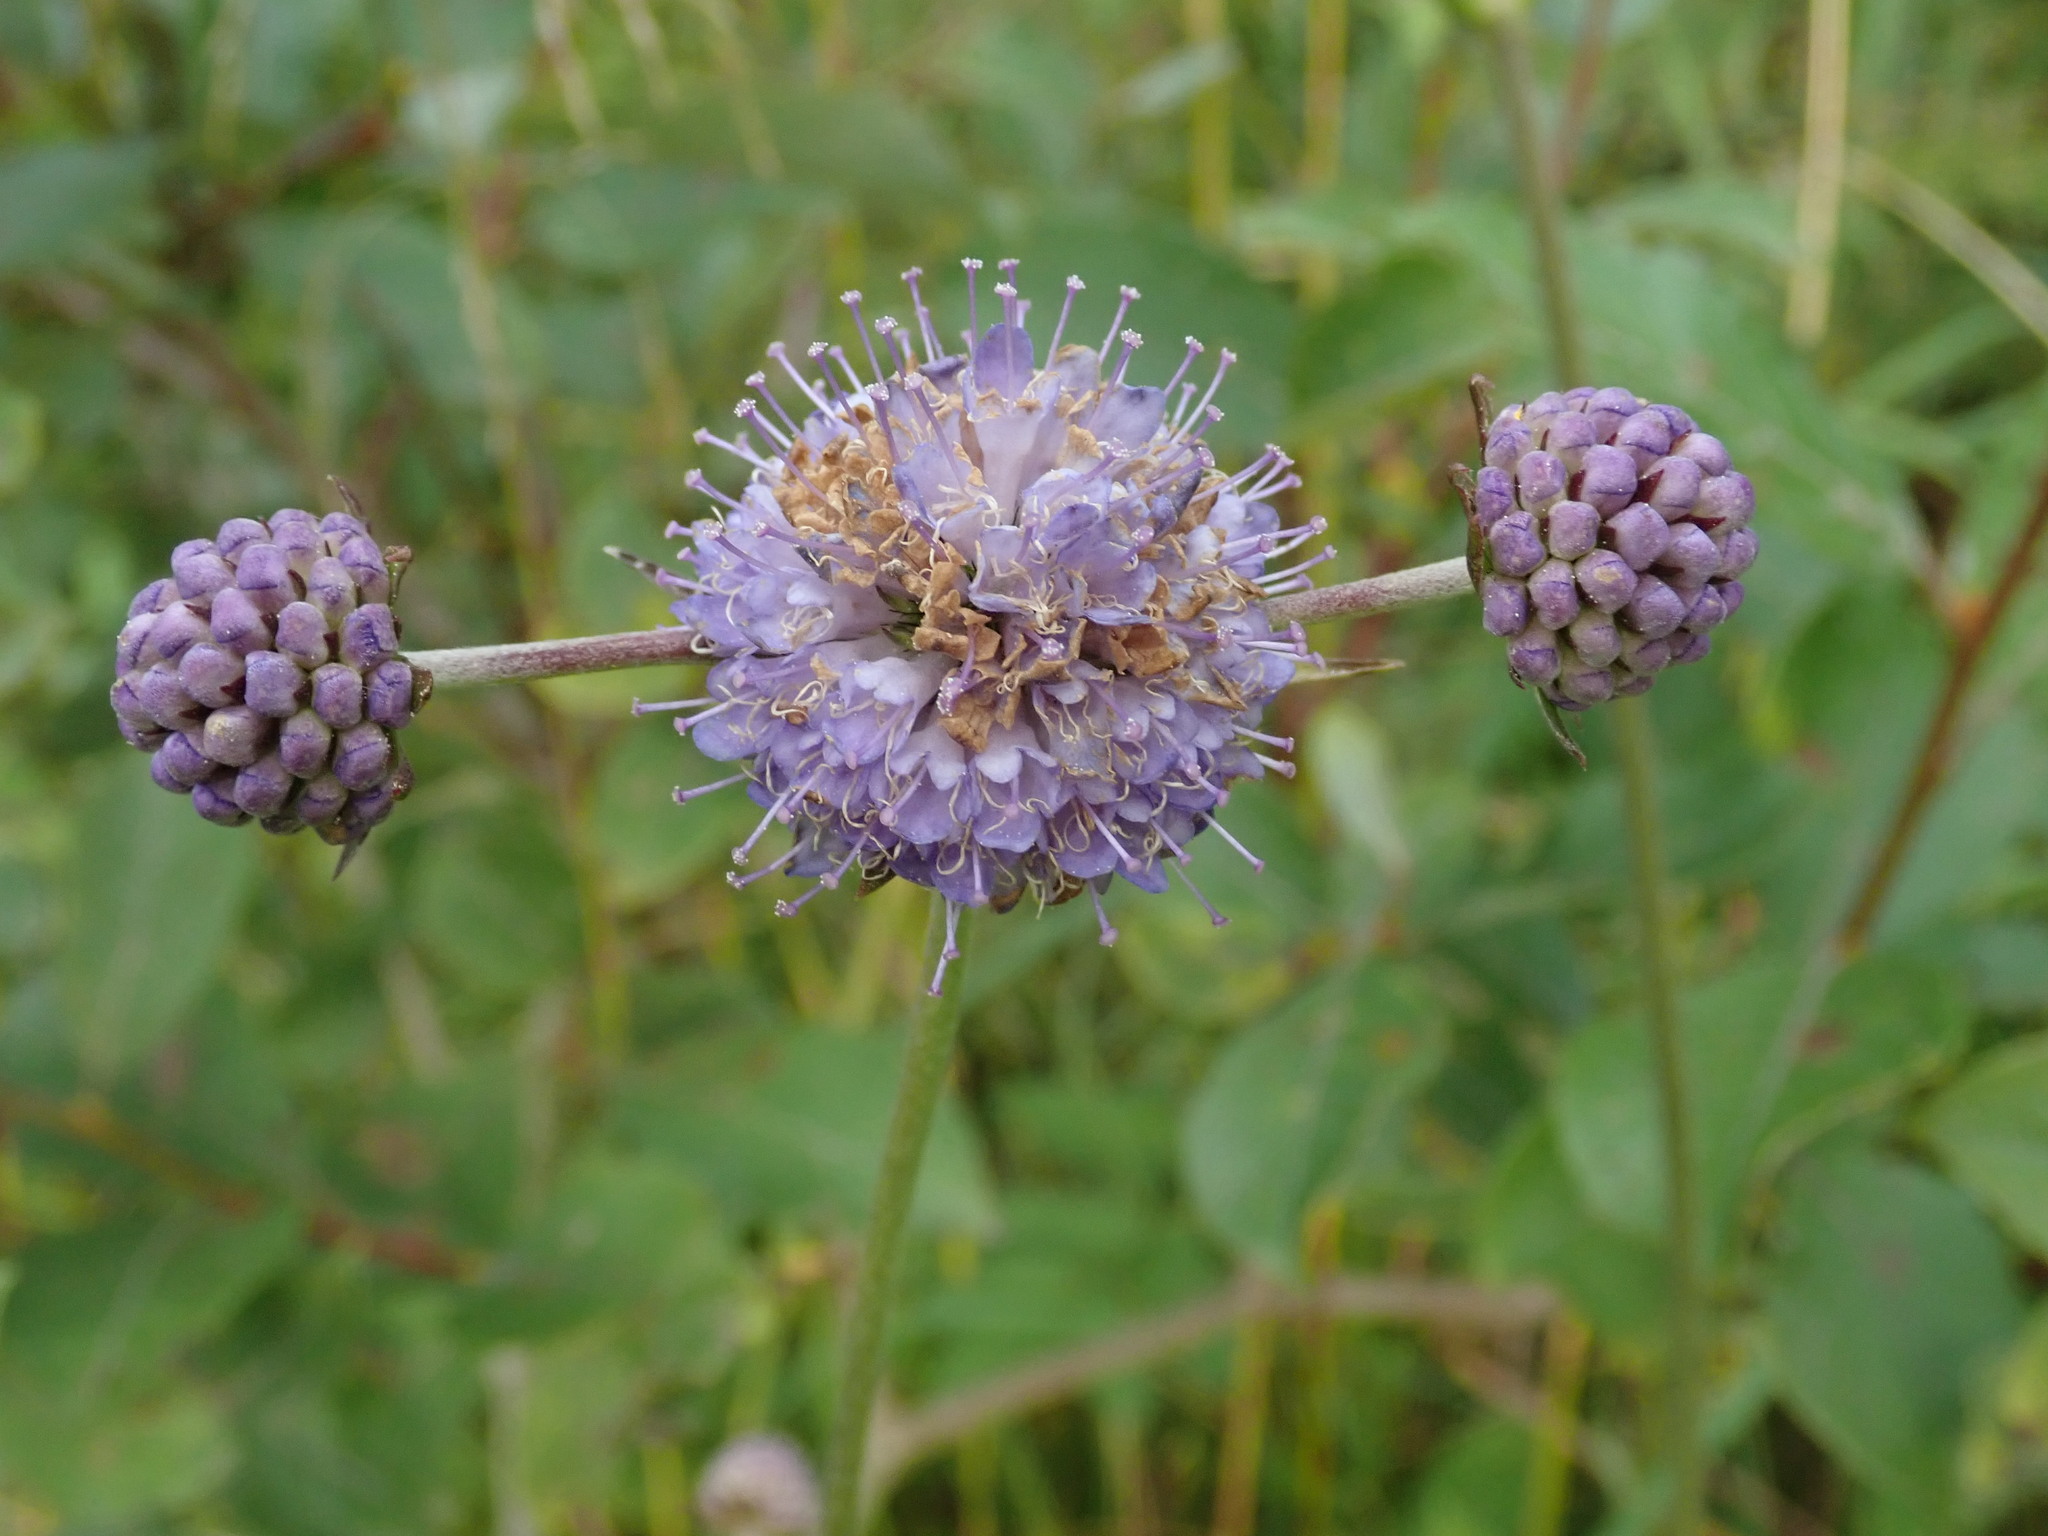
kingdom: Plantae
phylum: Tracheophyta
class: Magnoliopsida
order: Dipsacales
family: Caprifoliaceae
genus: Succisa
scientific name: Succisa pratensis
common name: Devil's-bit
